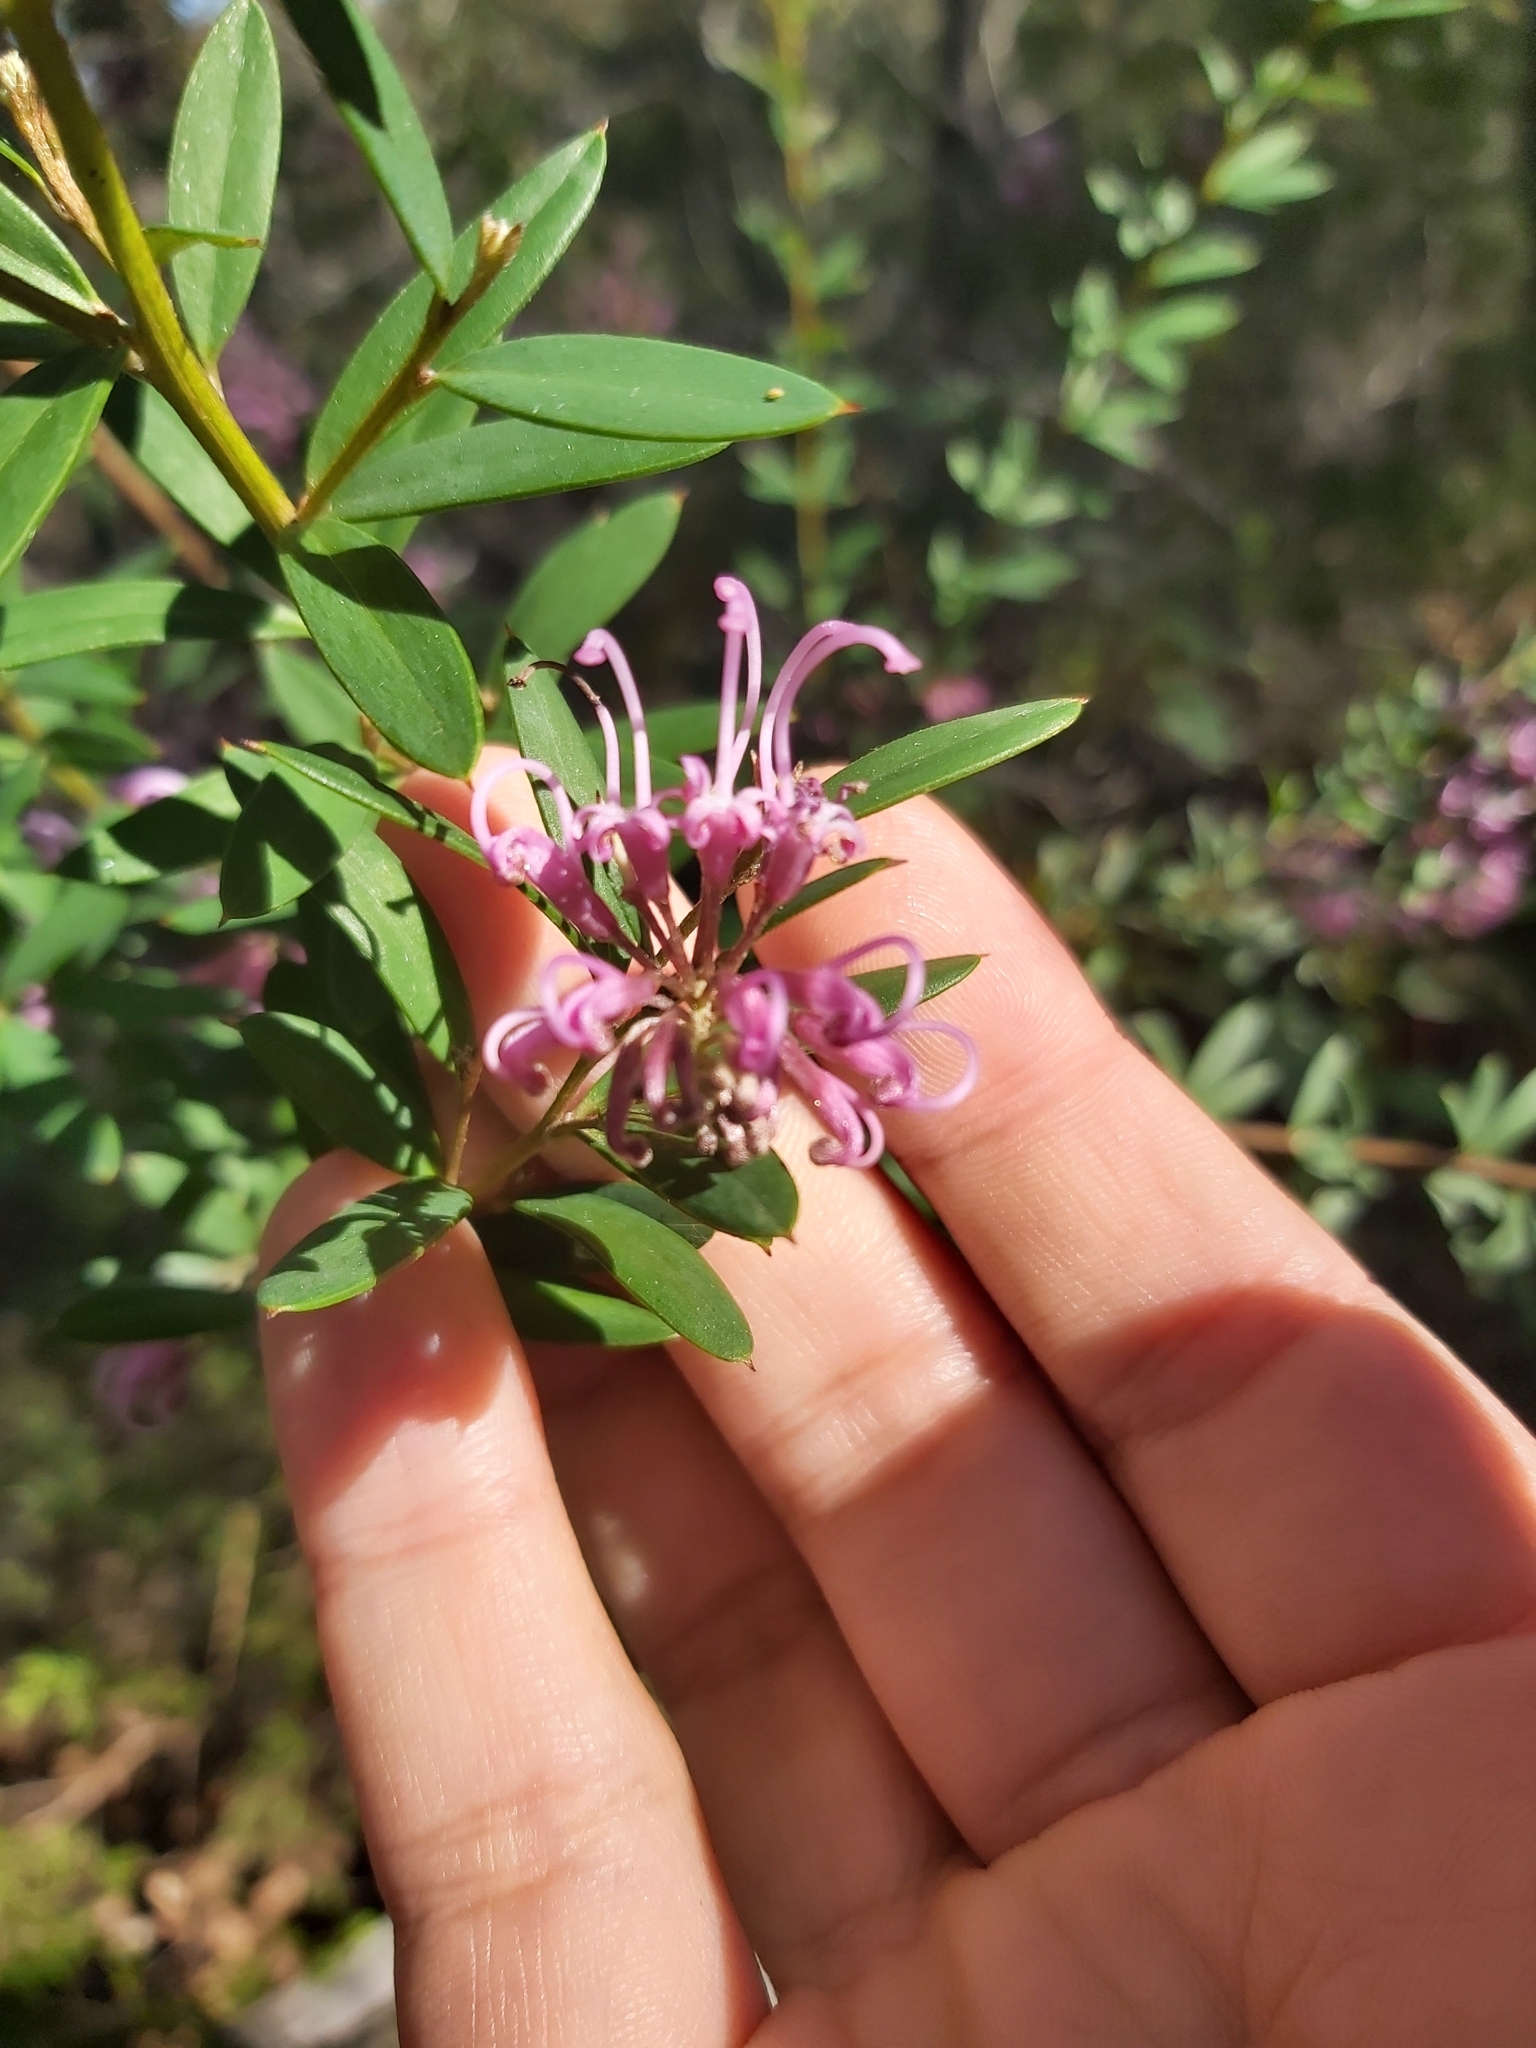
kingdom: Plantae
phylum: Tracheophyta
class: Magnoliopsida
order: Proteales
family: Proteaceae
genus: Grevillea
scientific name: Grevillea sericea
